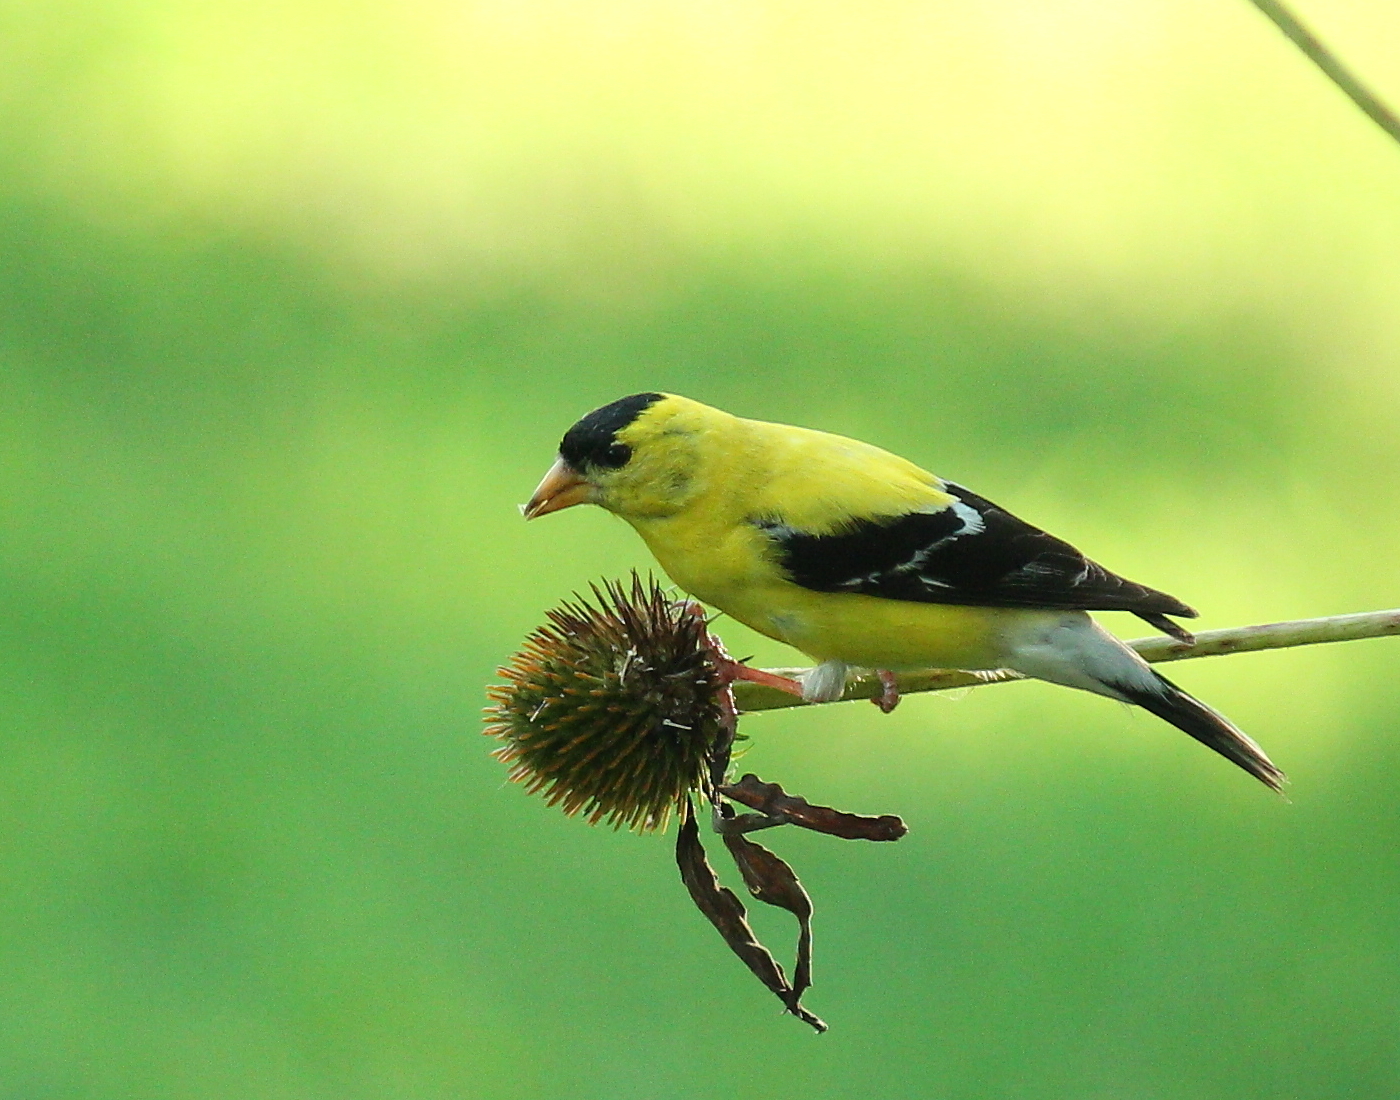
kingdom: Animalia
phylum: Chordata
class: Aves
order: Passeriformes
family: Fringillidae
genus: Spinus
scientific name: Spinus tristis
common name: American goldfinch
